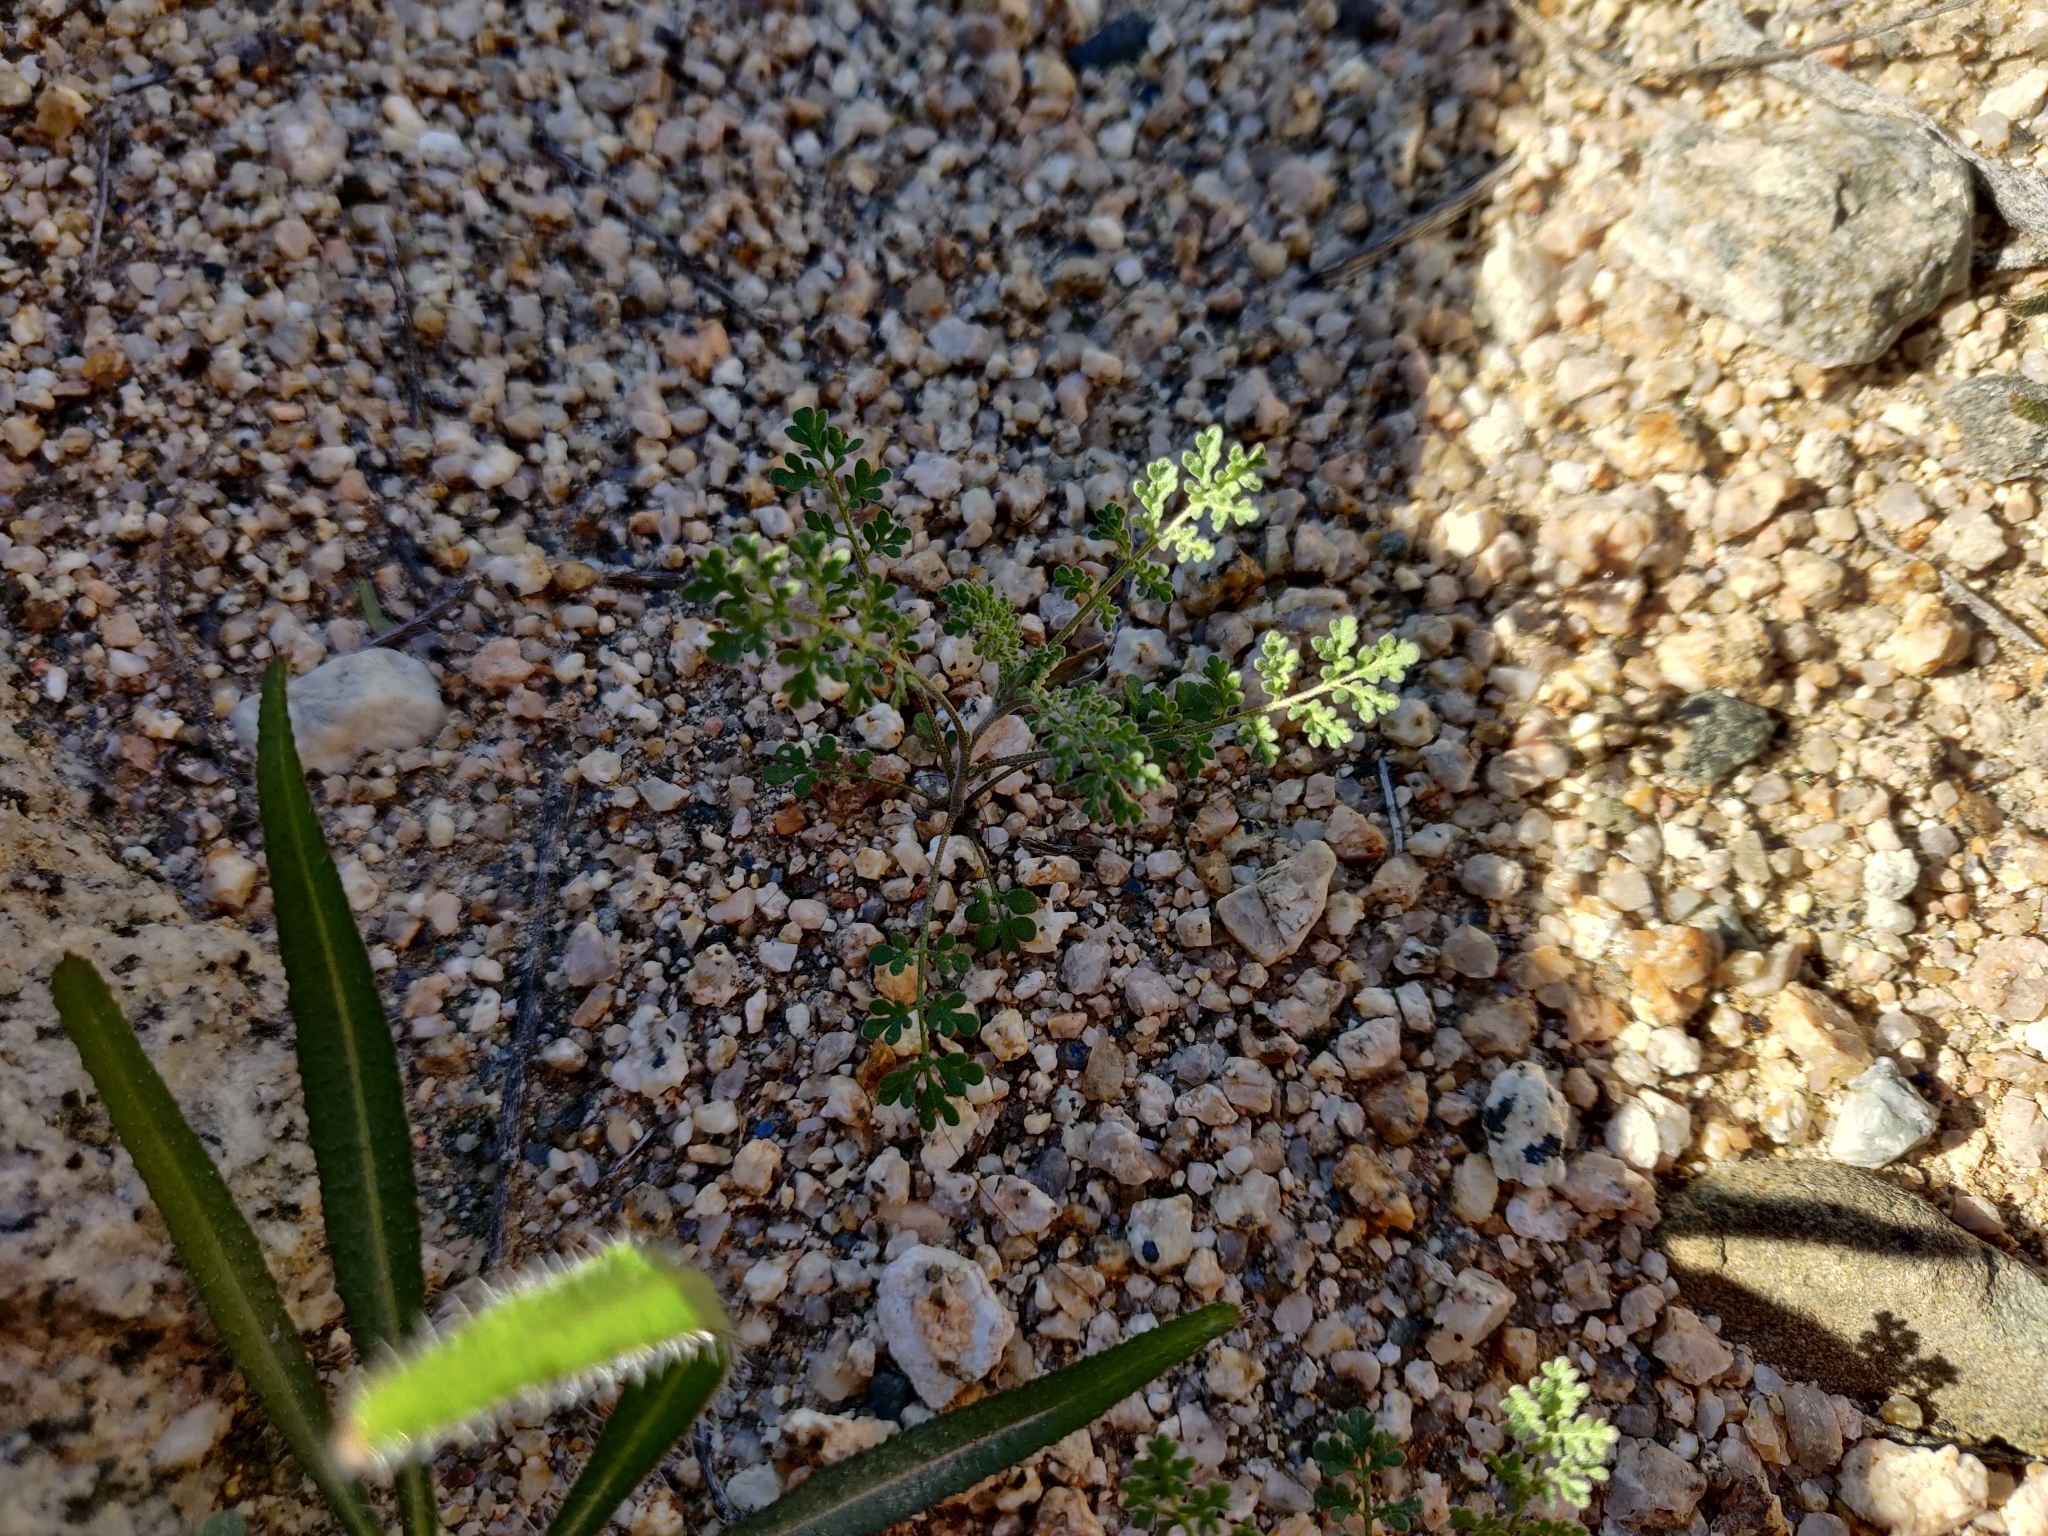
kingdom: Plantae
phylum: Tracheophyta
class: Magnoliopsida
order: Brassicales
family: Brassicaceae
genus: Descurainia
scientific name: Descurainia pinnata
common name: Western tansy mustard
